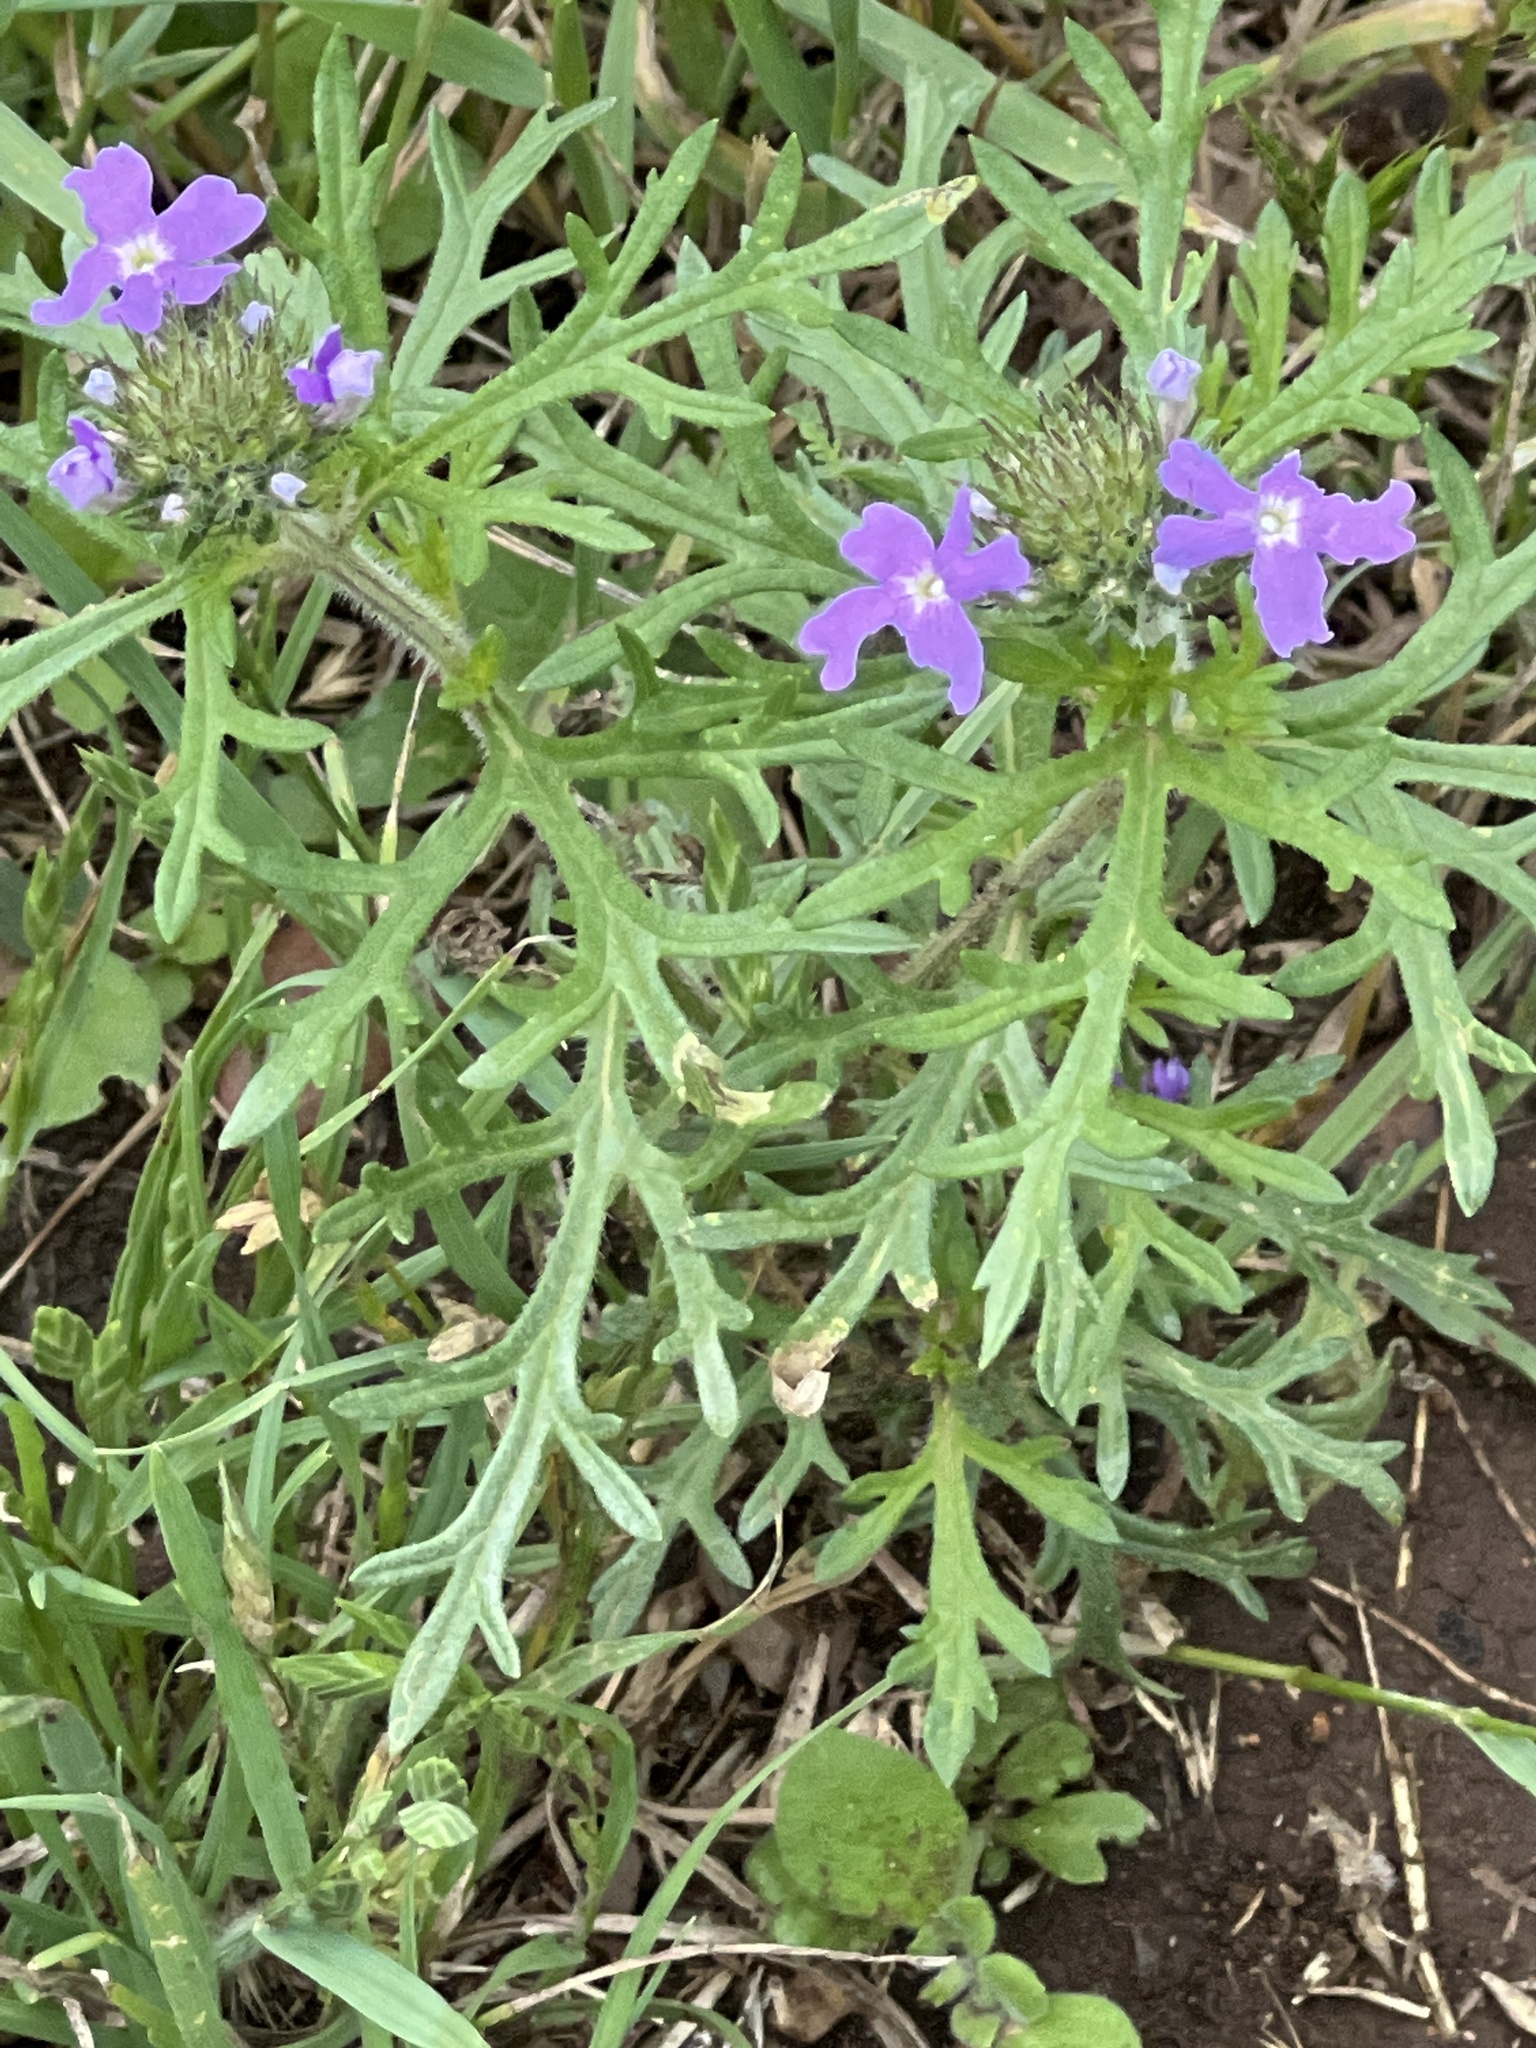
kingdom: Plantae
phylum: Tracheophyta
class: Magnoliopsida
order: Lamiales
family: Verbenaceae
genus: Verbena
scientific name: Verbena bipinnatifida
